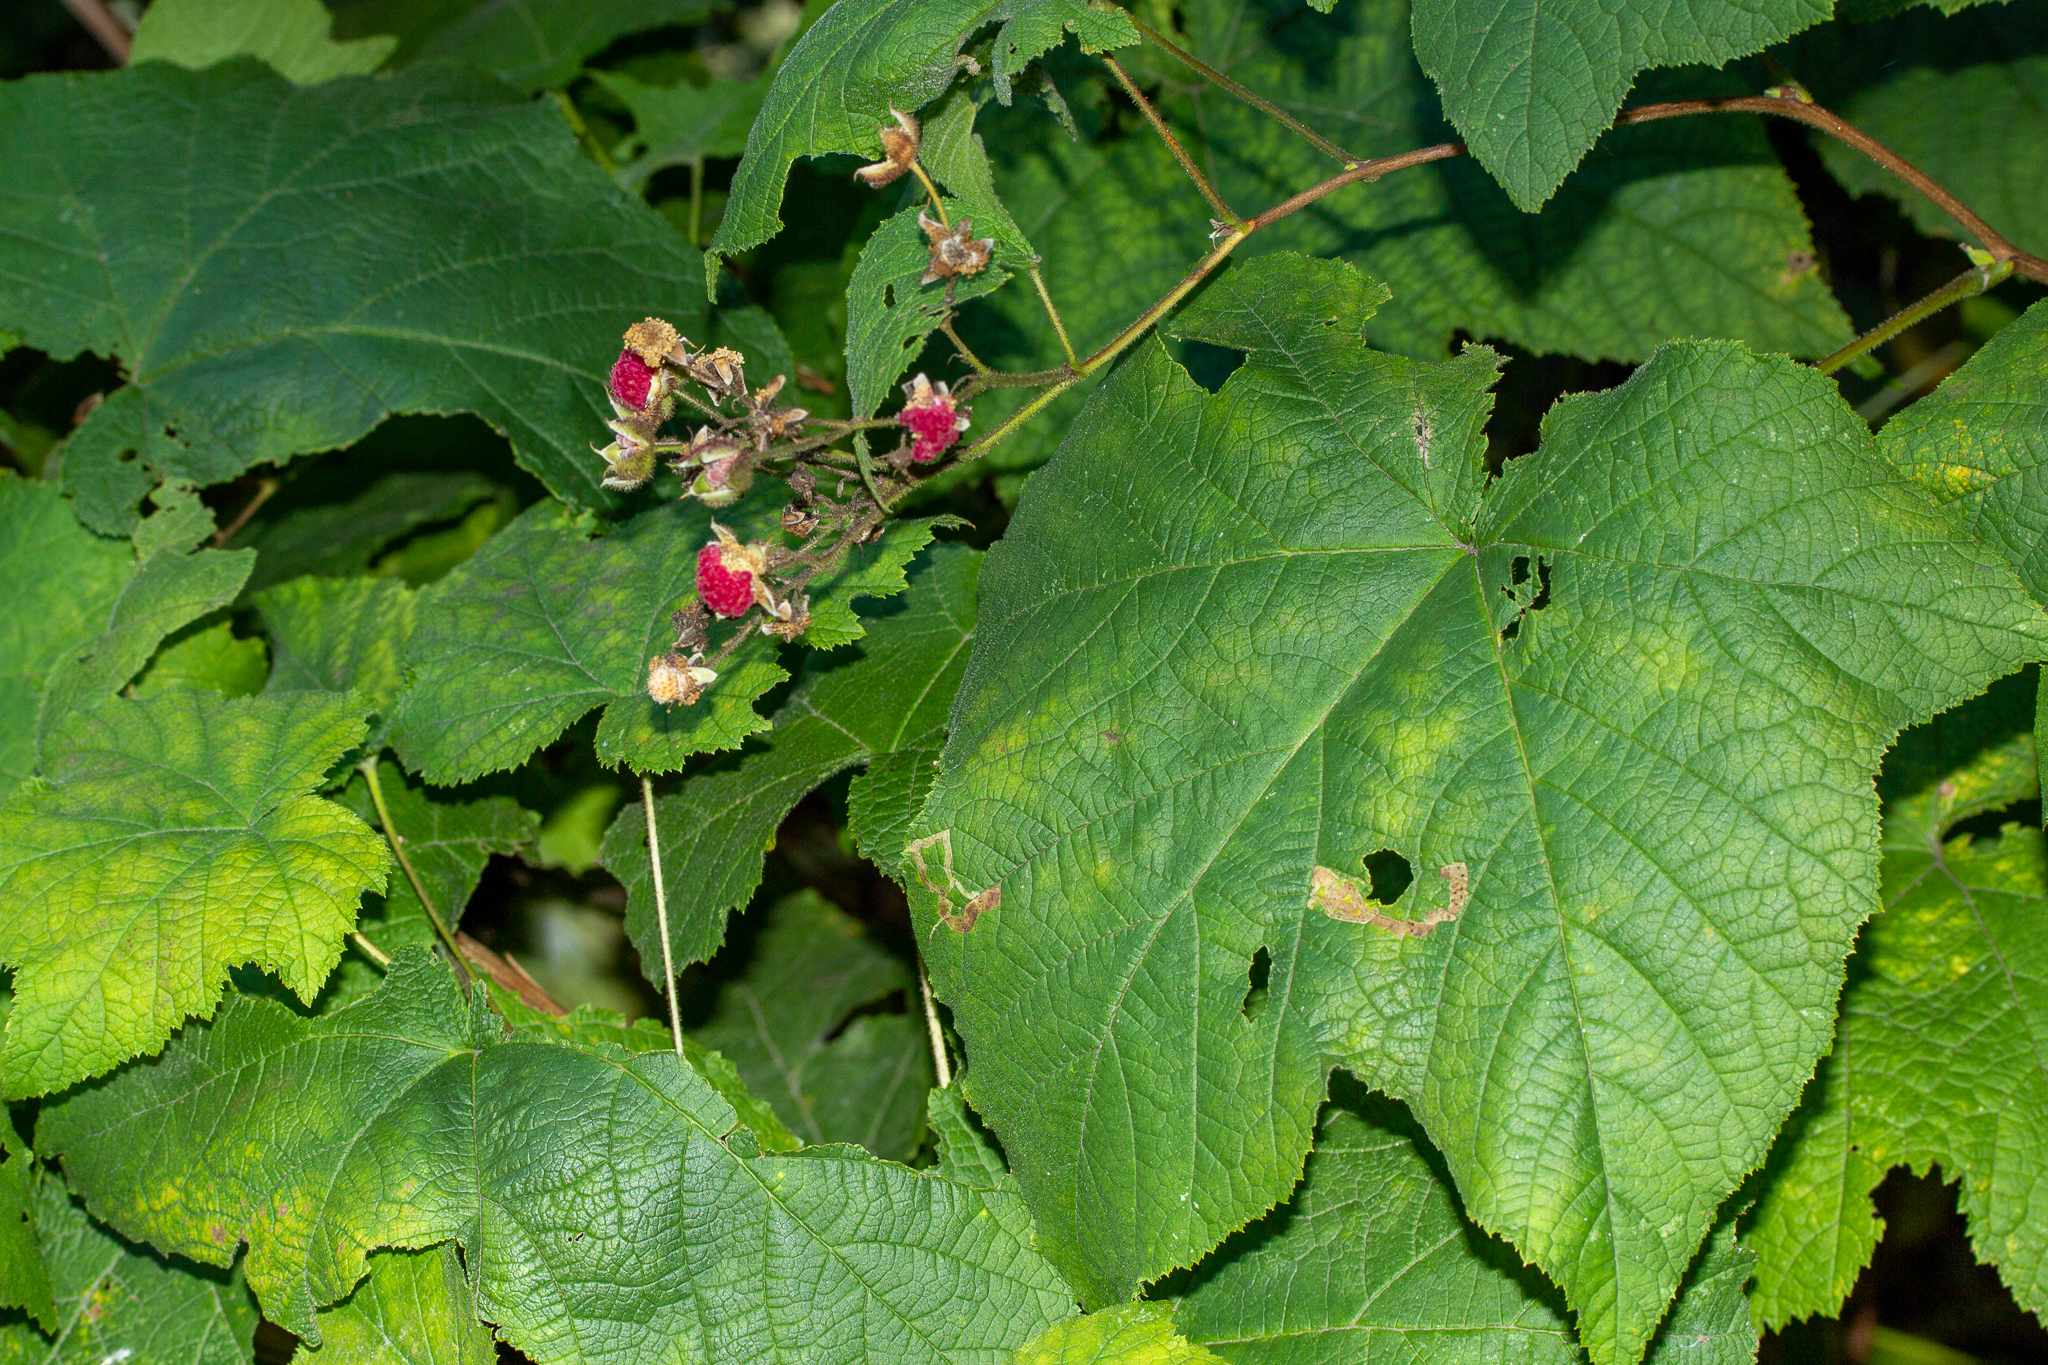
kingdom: Plantae
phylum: Tracheophyta
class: Magnoliopsida
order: Rosales
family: Rosaceae
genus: Rubus
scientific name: Rubus odoratus
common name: Purple-flowered raspberry
